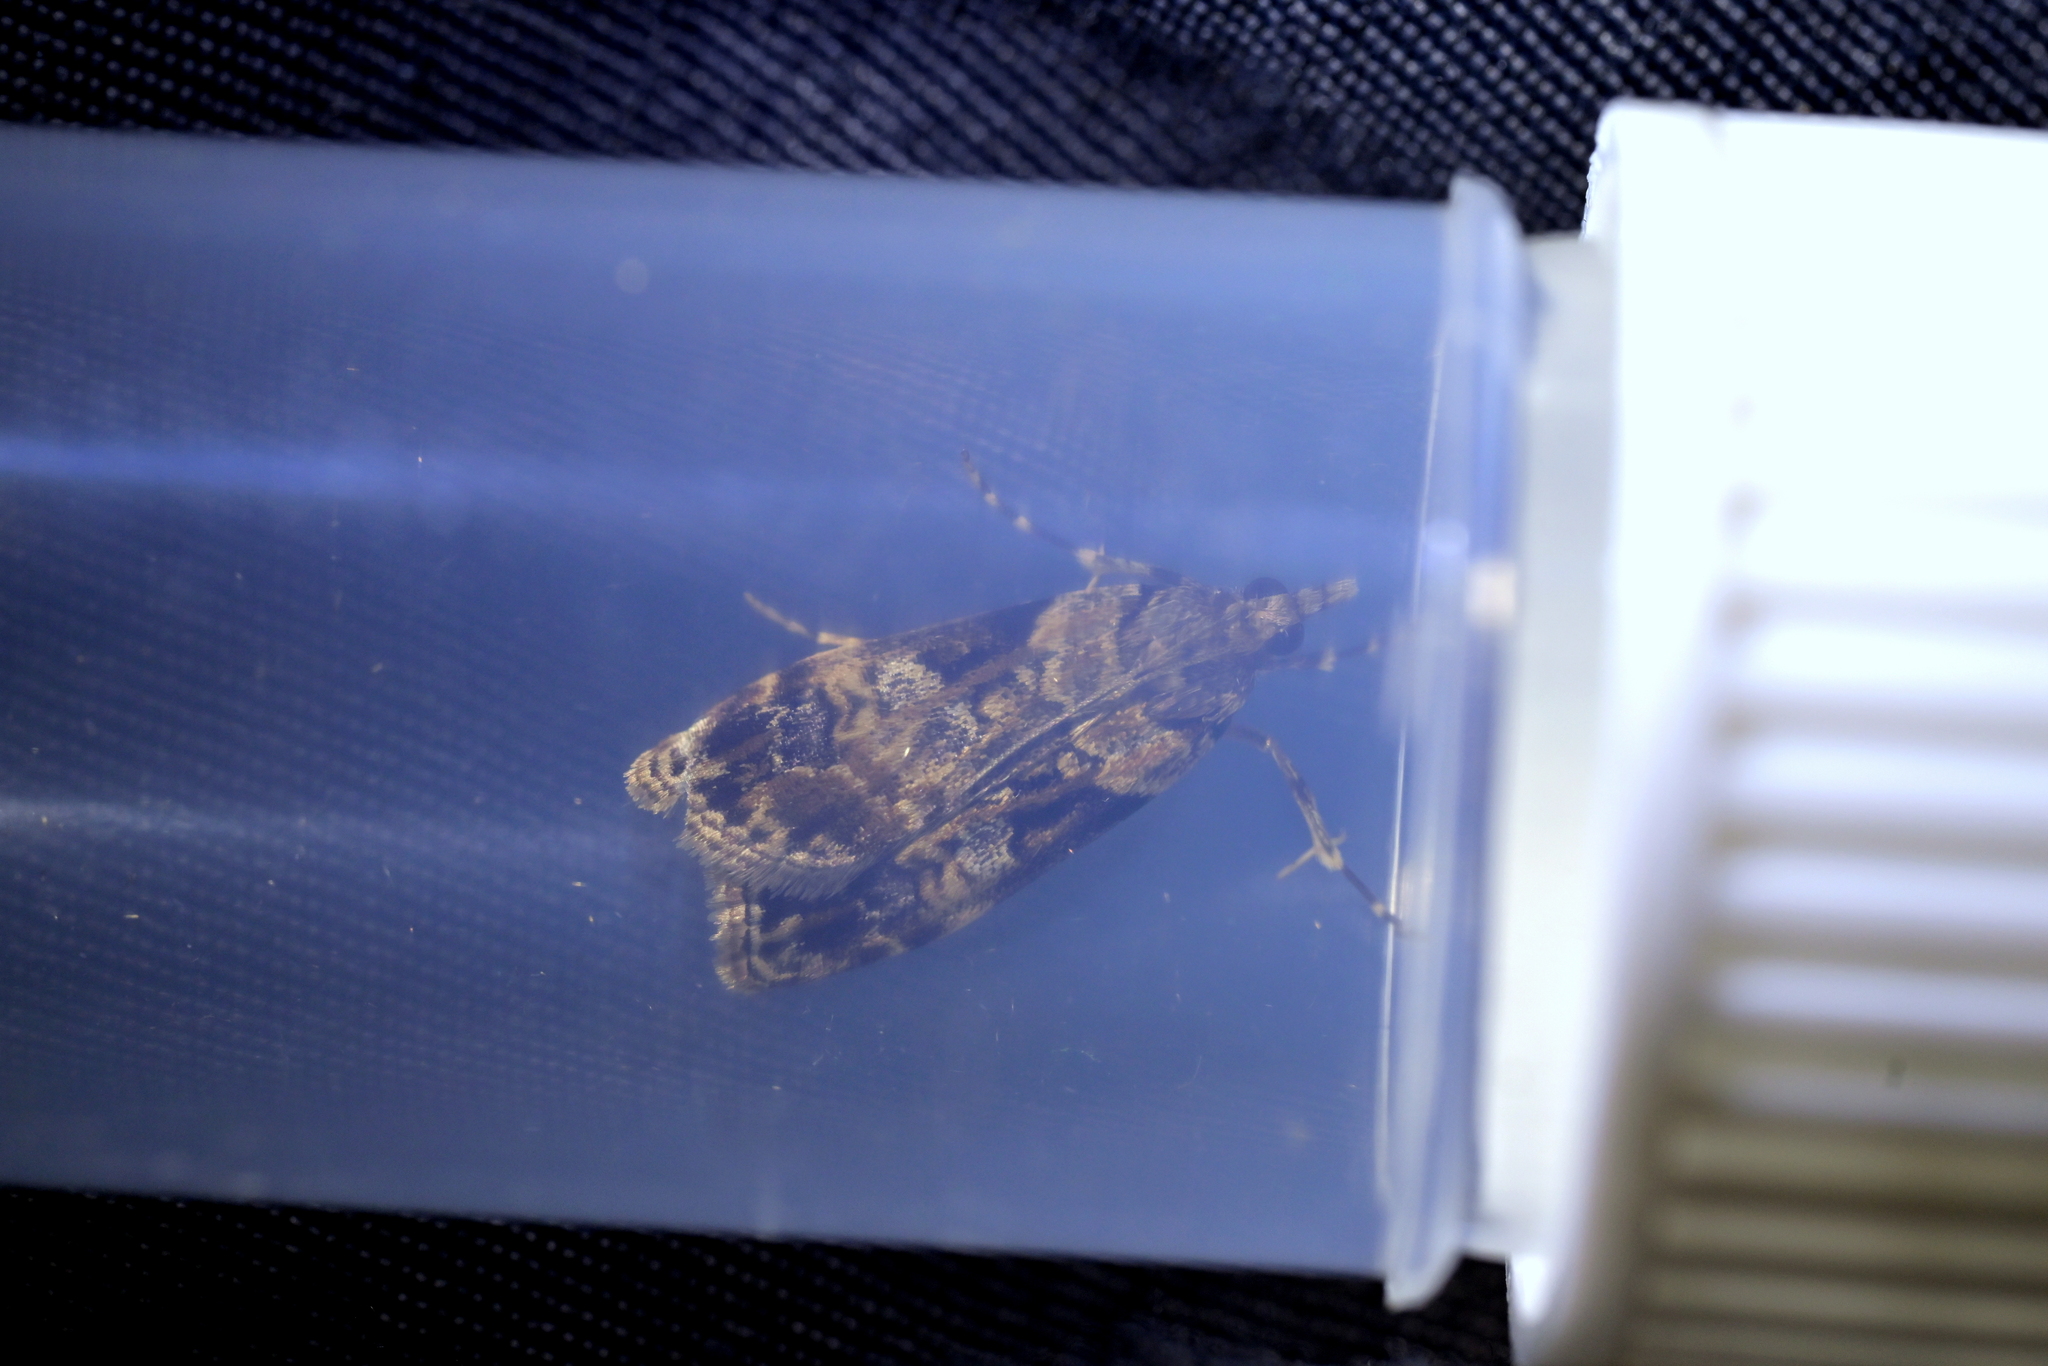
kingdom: Animalia
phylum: Arthropoda
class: Insecta
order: Lepidoptera
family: Crambidae
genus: Scoparia
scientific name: Scoparia acharis
